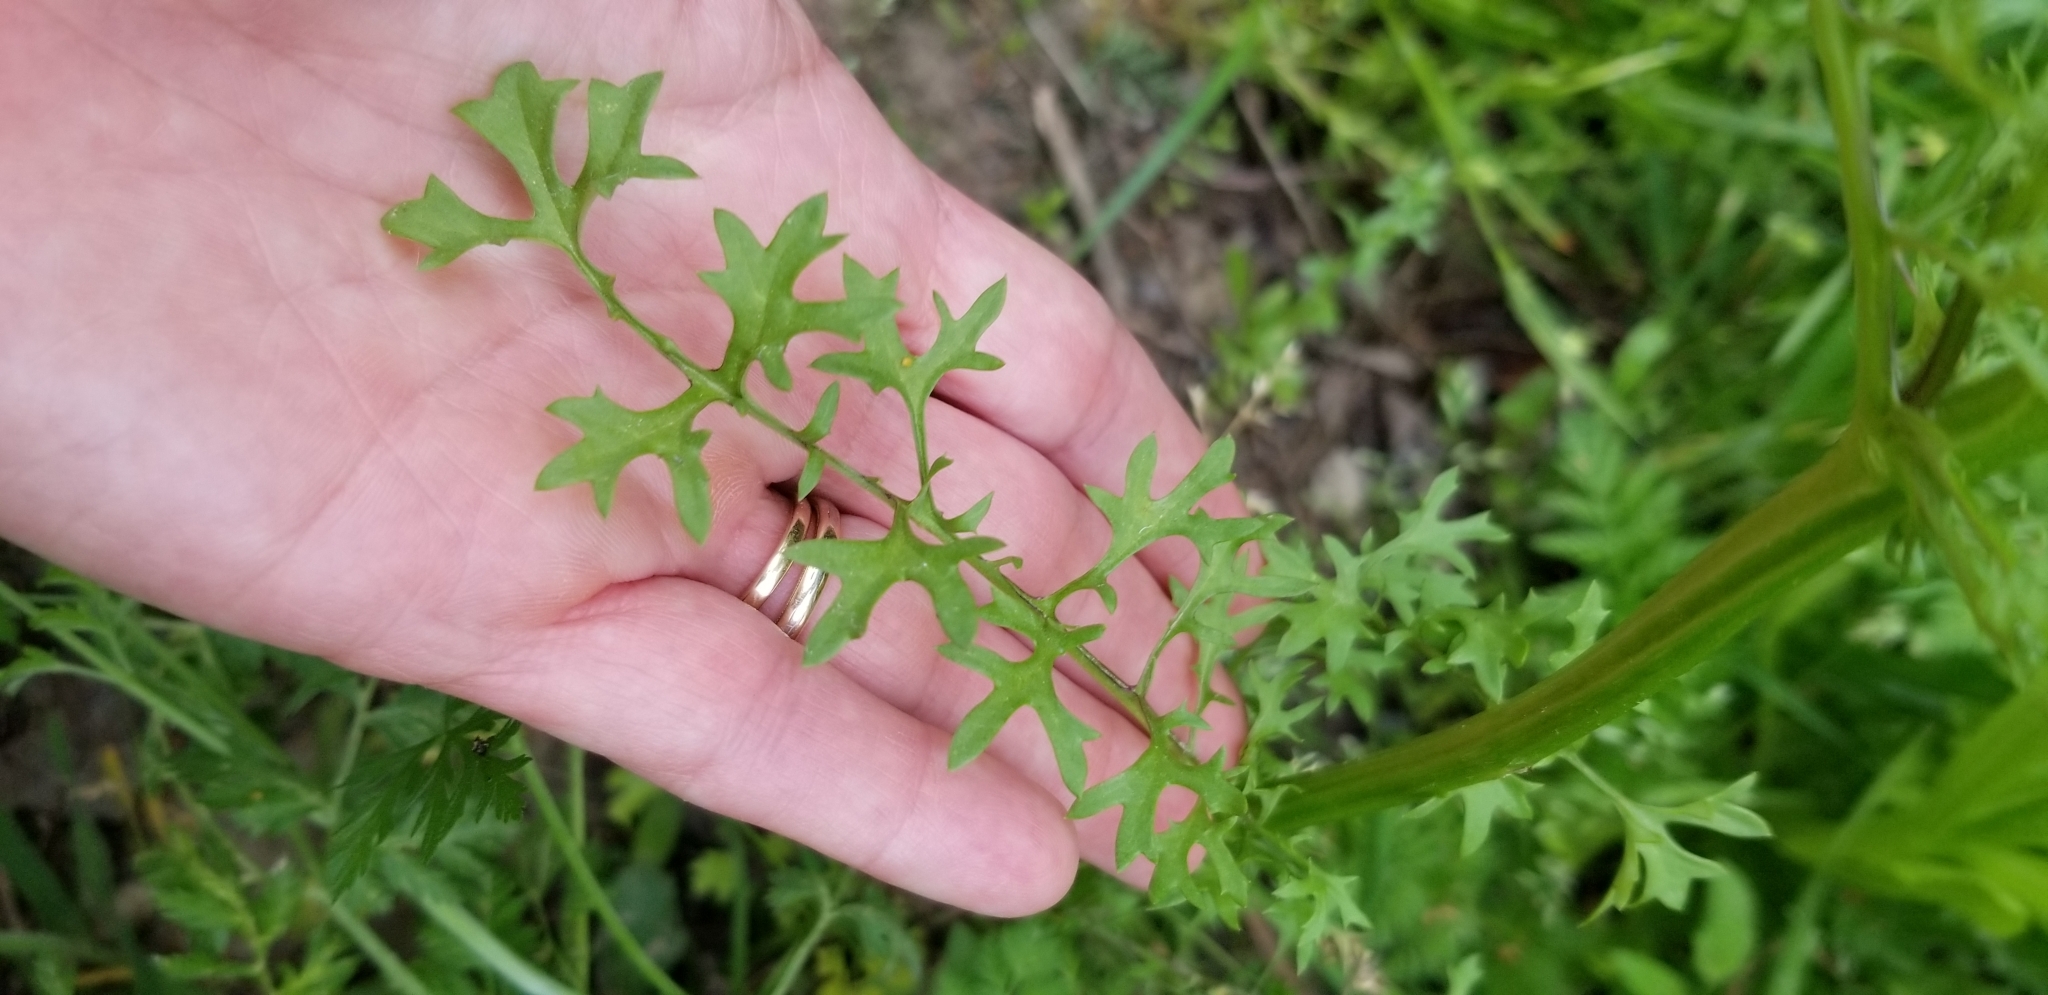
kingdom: Plantae
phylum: Tracheophyta
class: Magnoliopsida
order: Asterales
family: Asteraceae
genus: Packera
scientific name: Packera tampicana
